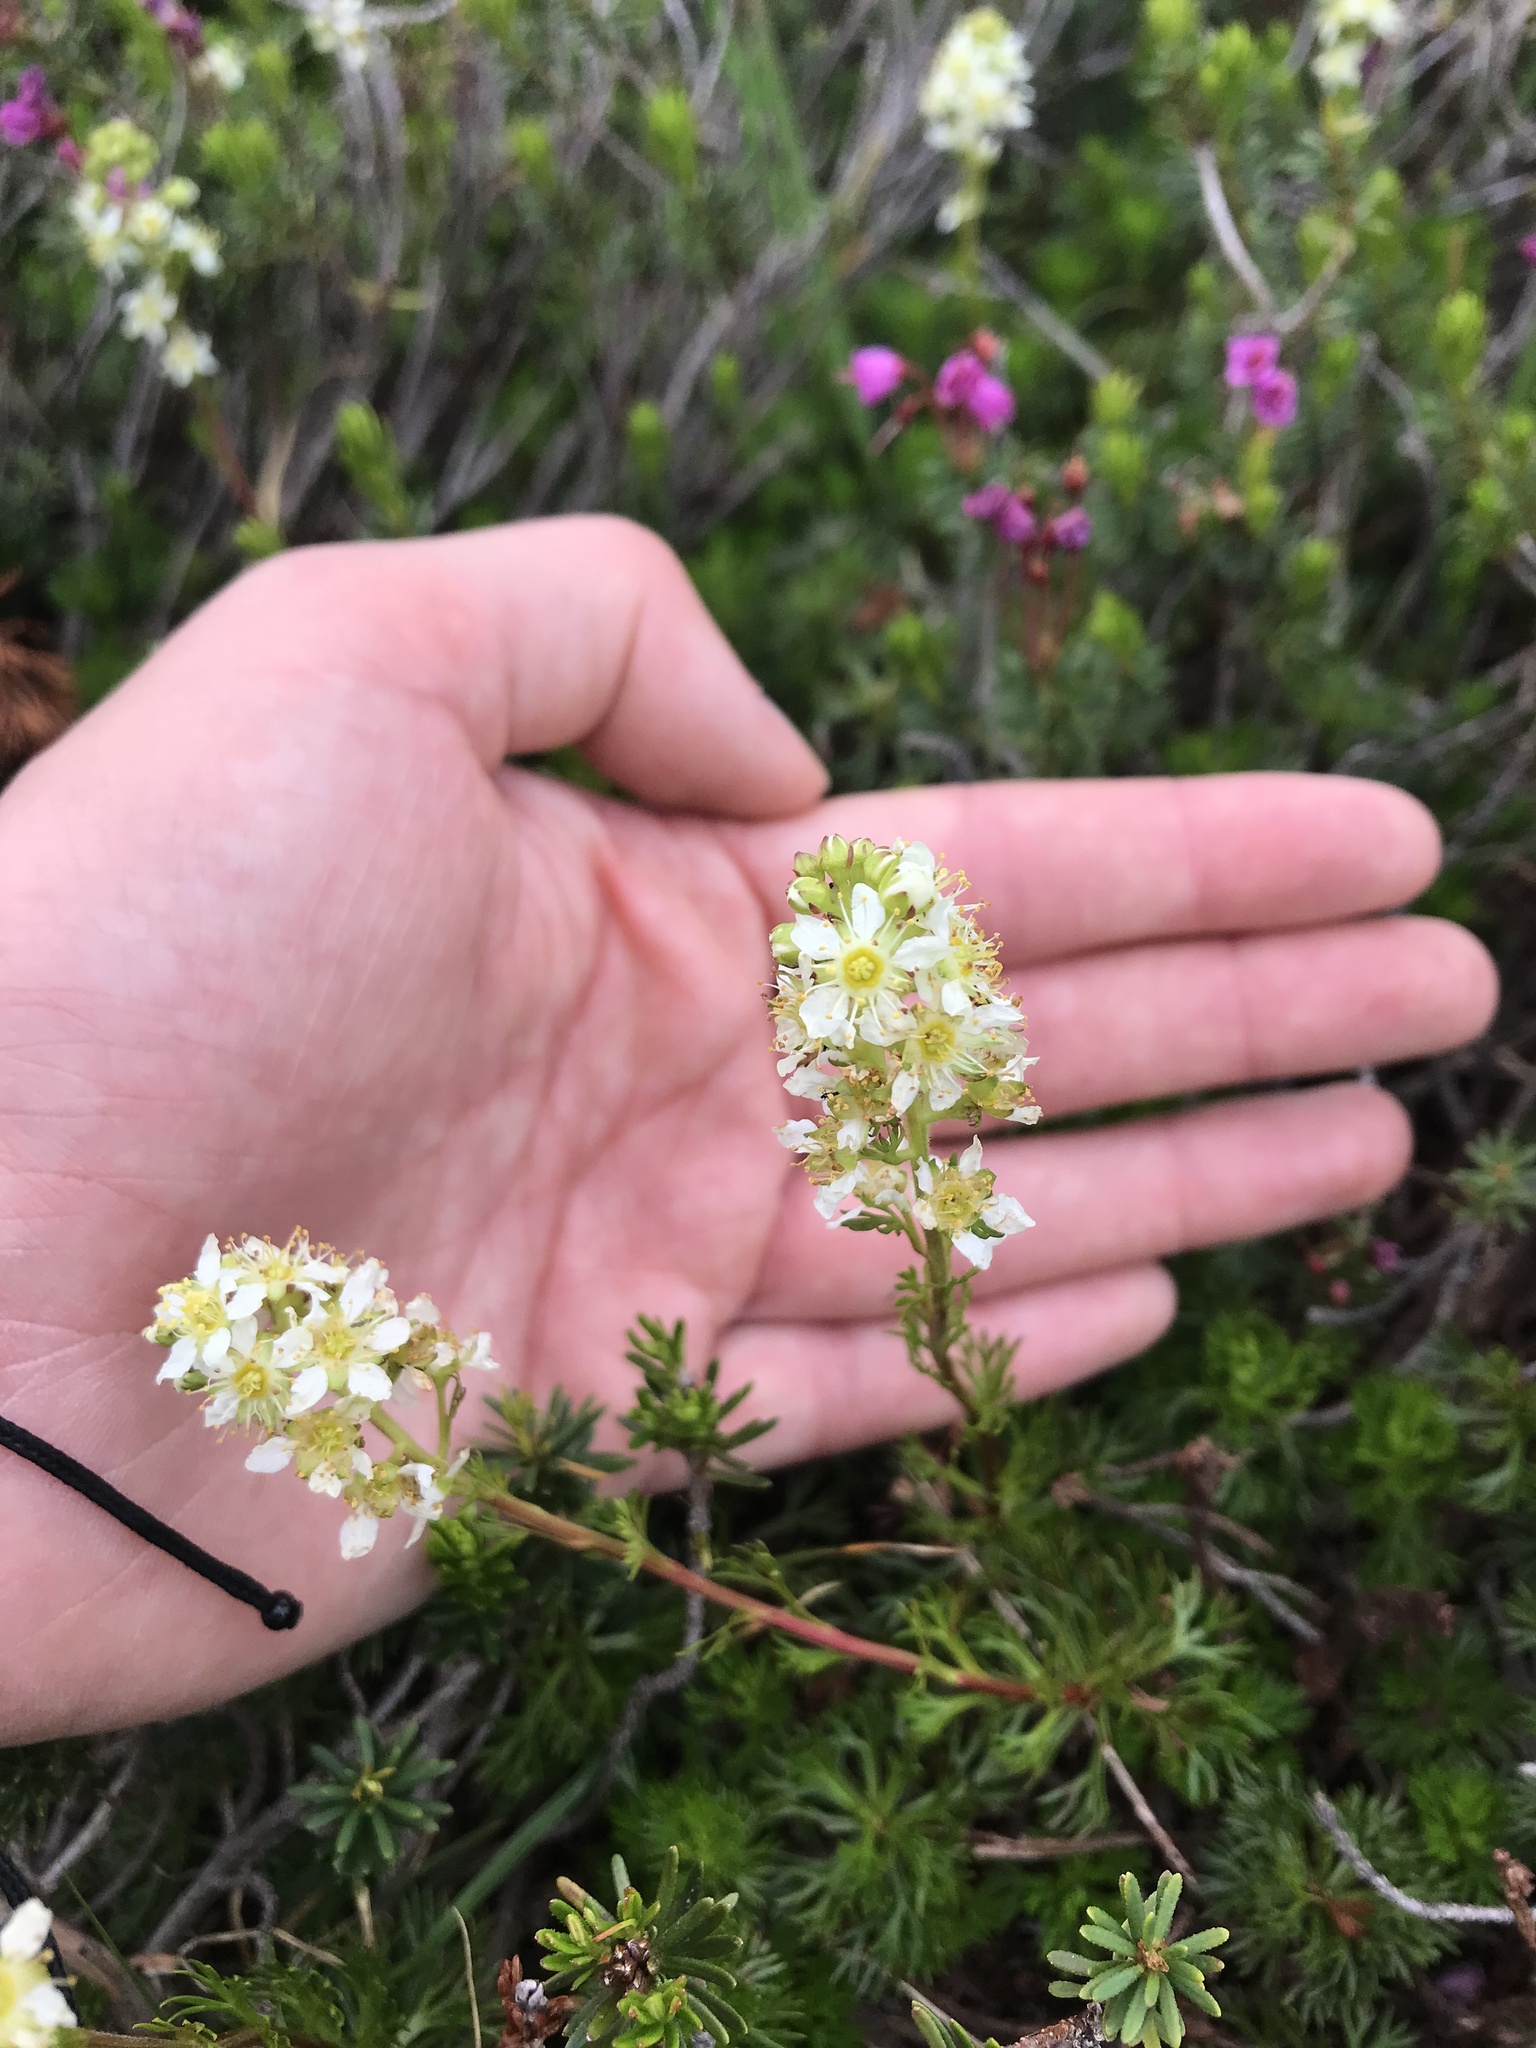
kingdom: Plantae
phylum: Tracheophyta
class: Magnoliopsida
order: Rosales
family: Rosaceae
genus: Luetkea
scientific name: Luetkea pectinata
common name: Partridgefoot
